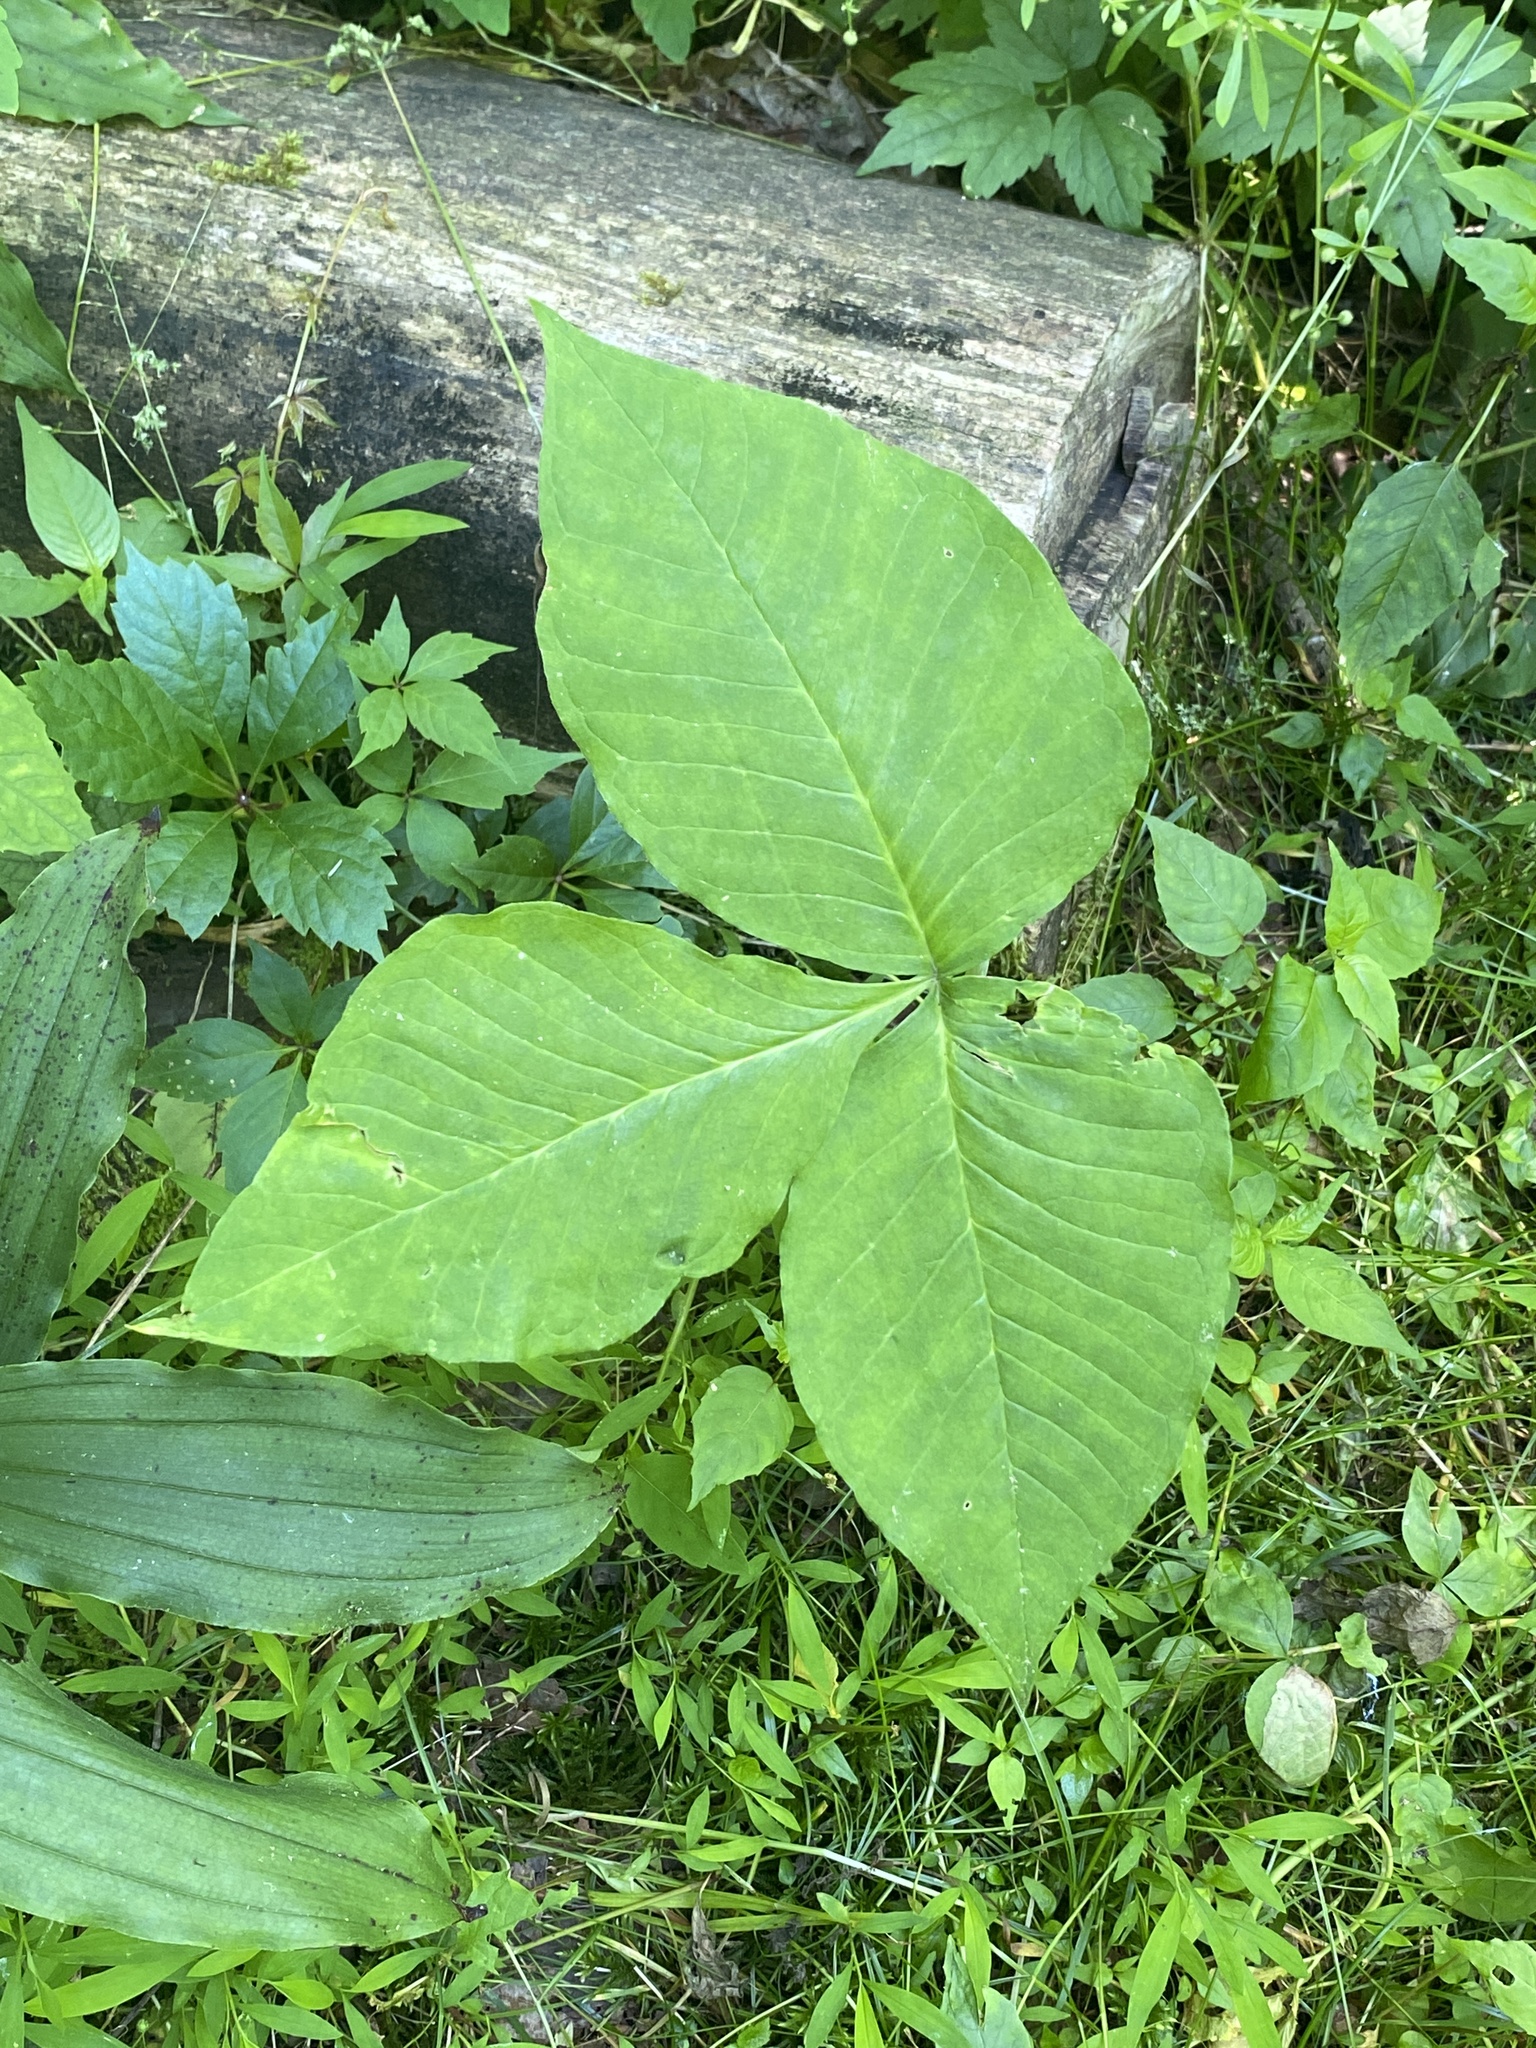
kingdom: Plantae
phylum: Tracheophyta
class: Liliopsida
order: Alismatales
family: Araceae
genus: Arisaema
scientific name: Arisaema triphyllum
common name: Jack-in-the-pulpit
